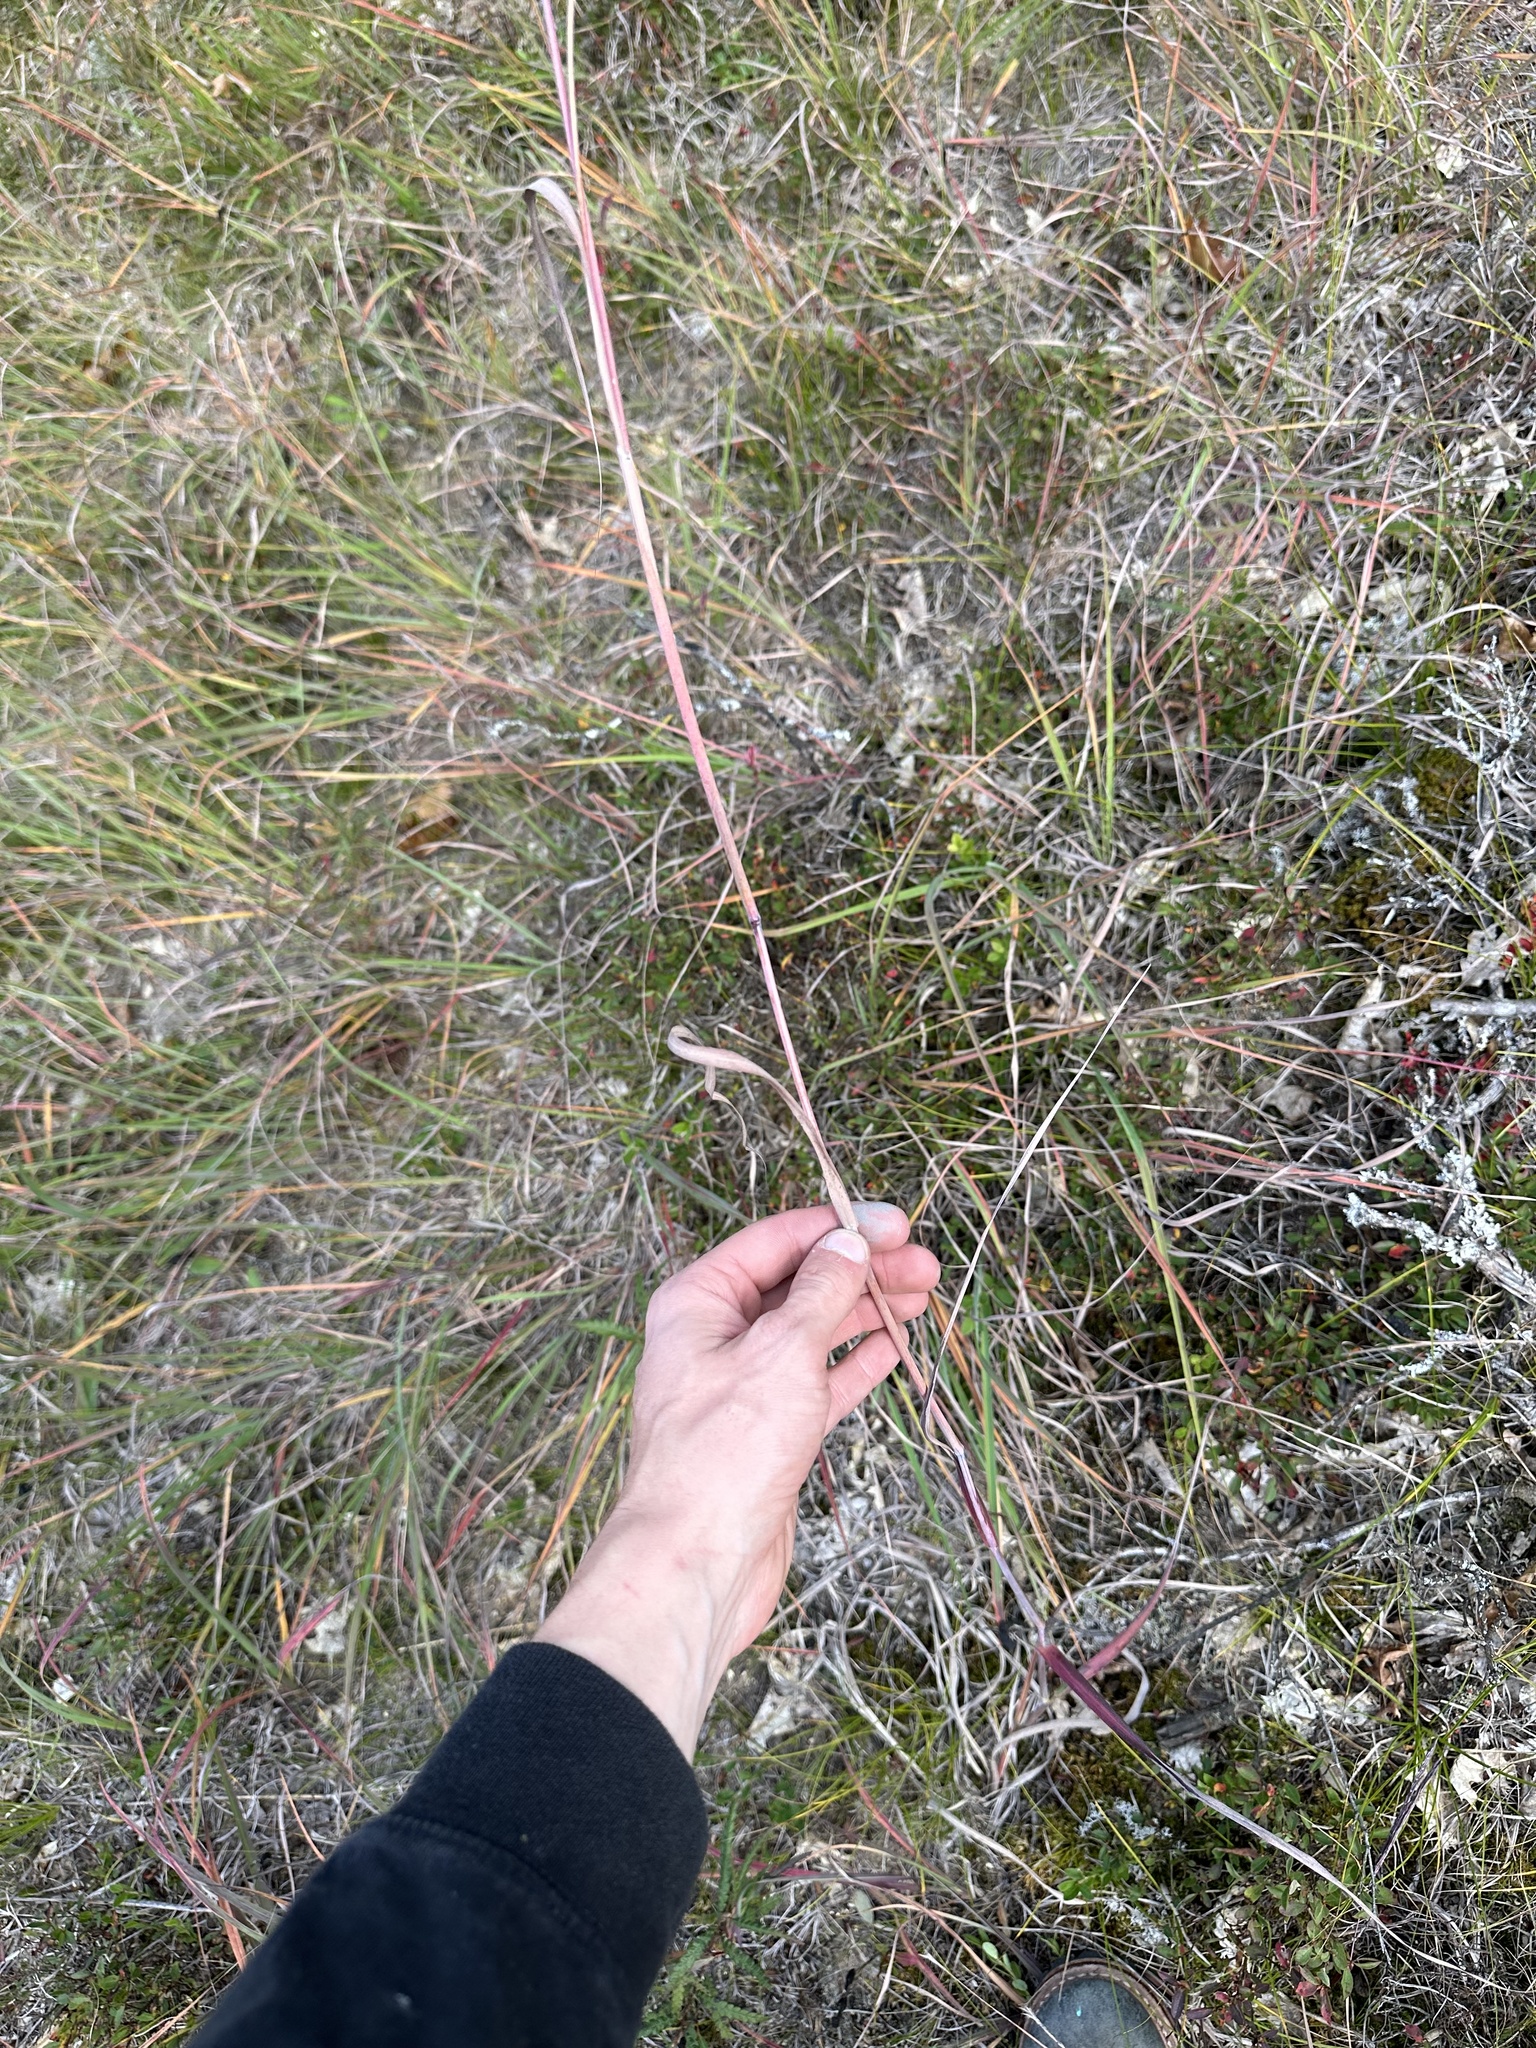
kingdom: Plantae
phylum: Tracheophyta
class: Liliopsida
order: Poales
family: Poaceae
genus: Andropogon
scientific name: Andropogon gerardi
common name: Big bluestem
